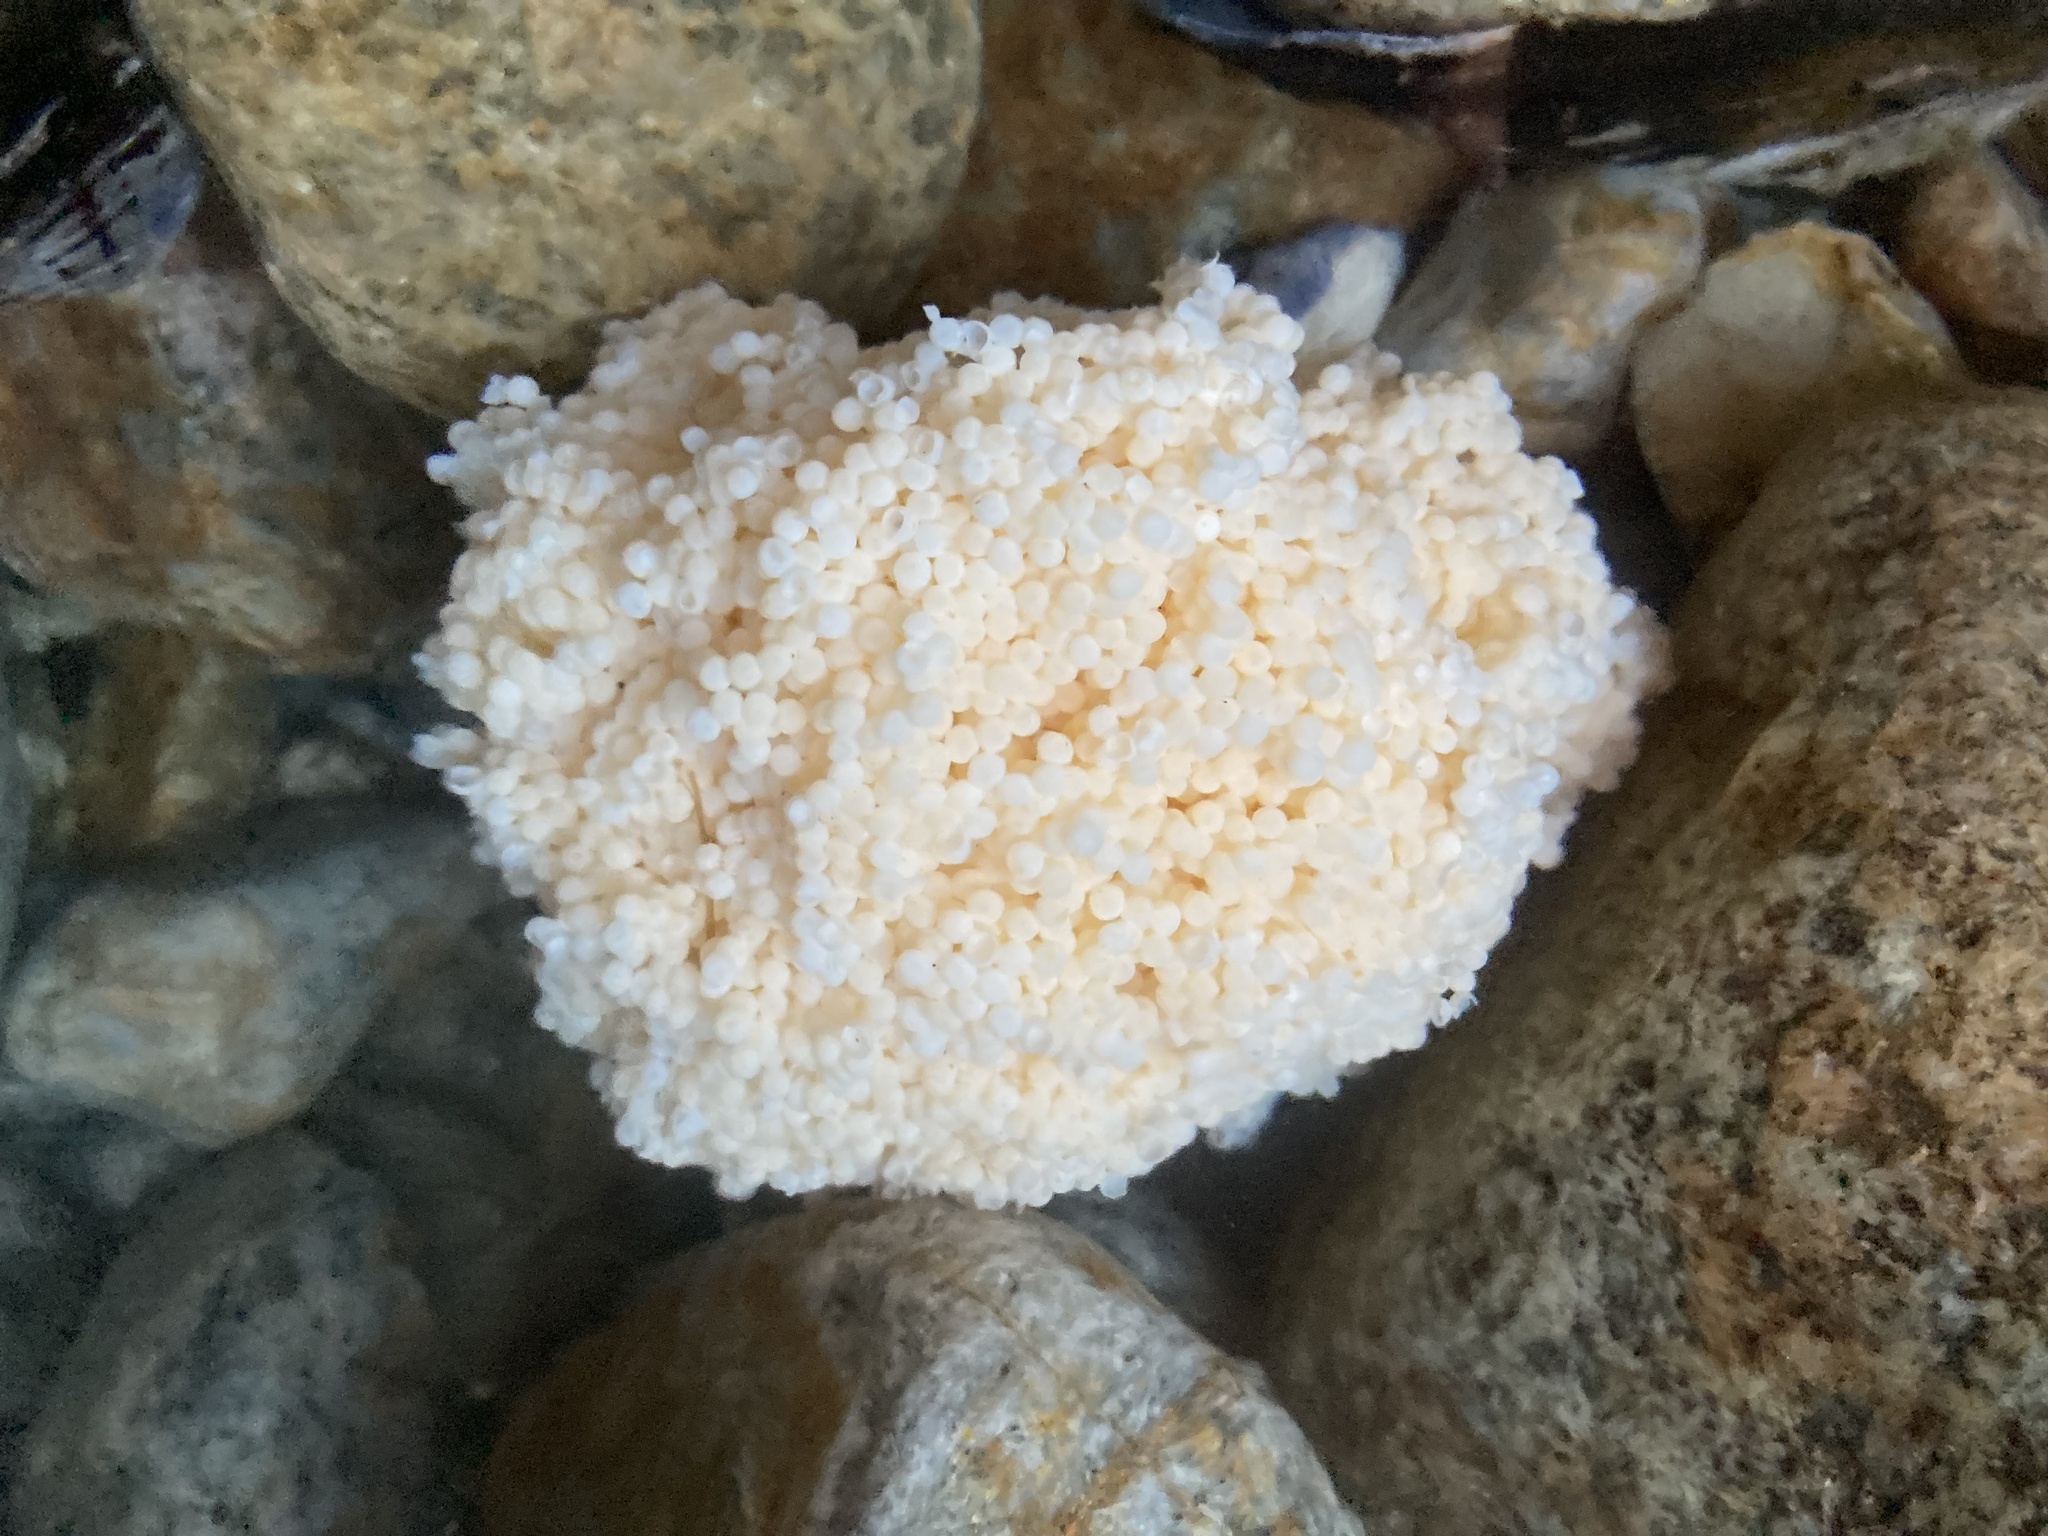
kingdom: Animalia
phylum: Chordata
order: Scorpaeniformes
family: Hexagrammidae
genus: Ophiodon
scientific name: Ophiodon elongatus
